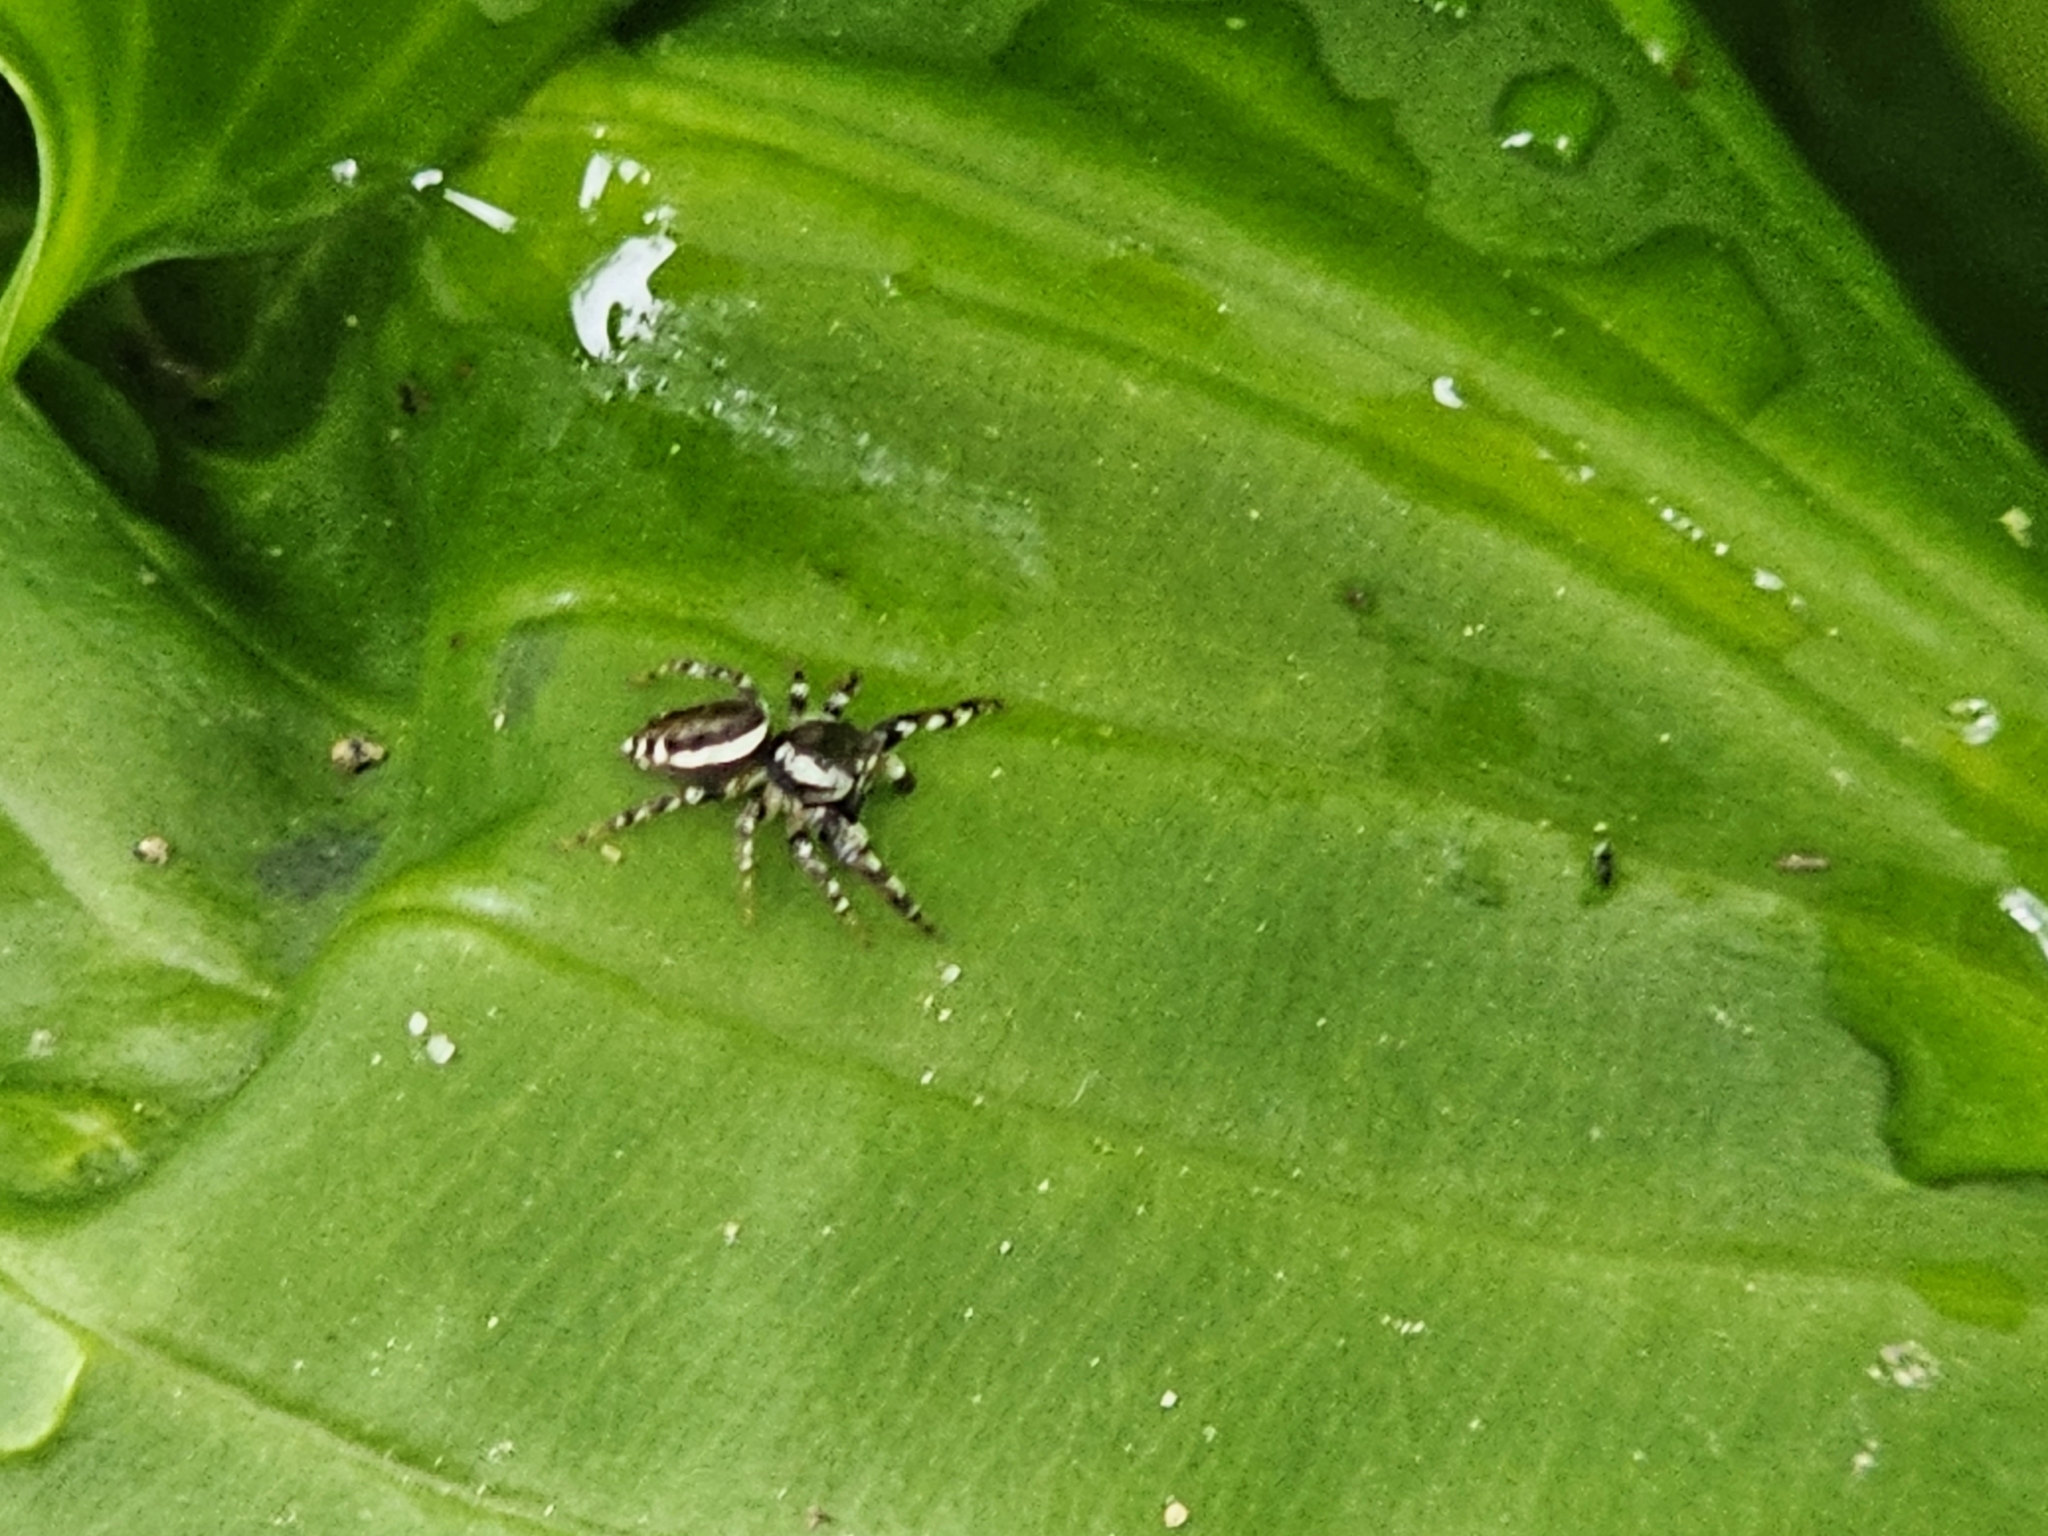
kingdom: Animalia
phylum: Arthropoda
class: Arachnida
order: Araneae
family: Salticidae
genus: Pelegrina
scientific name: Pelegrina proterva
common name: Common white-cheeked jumping spider
